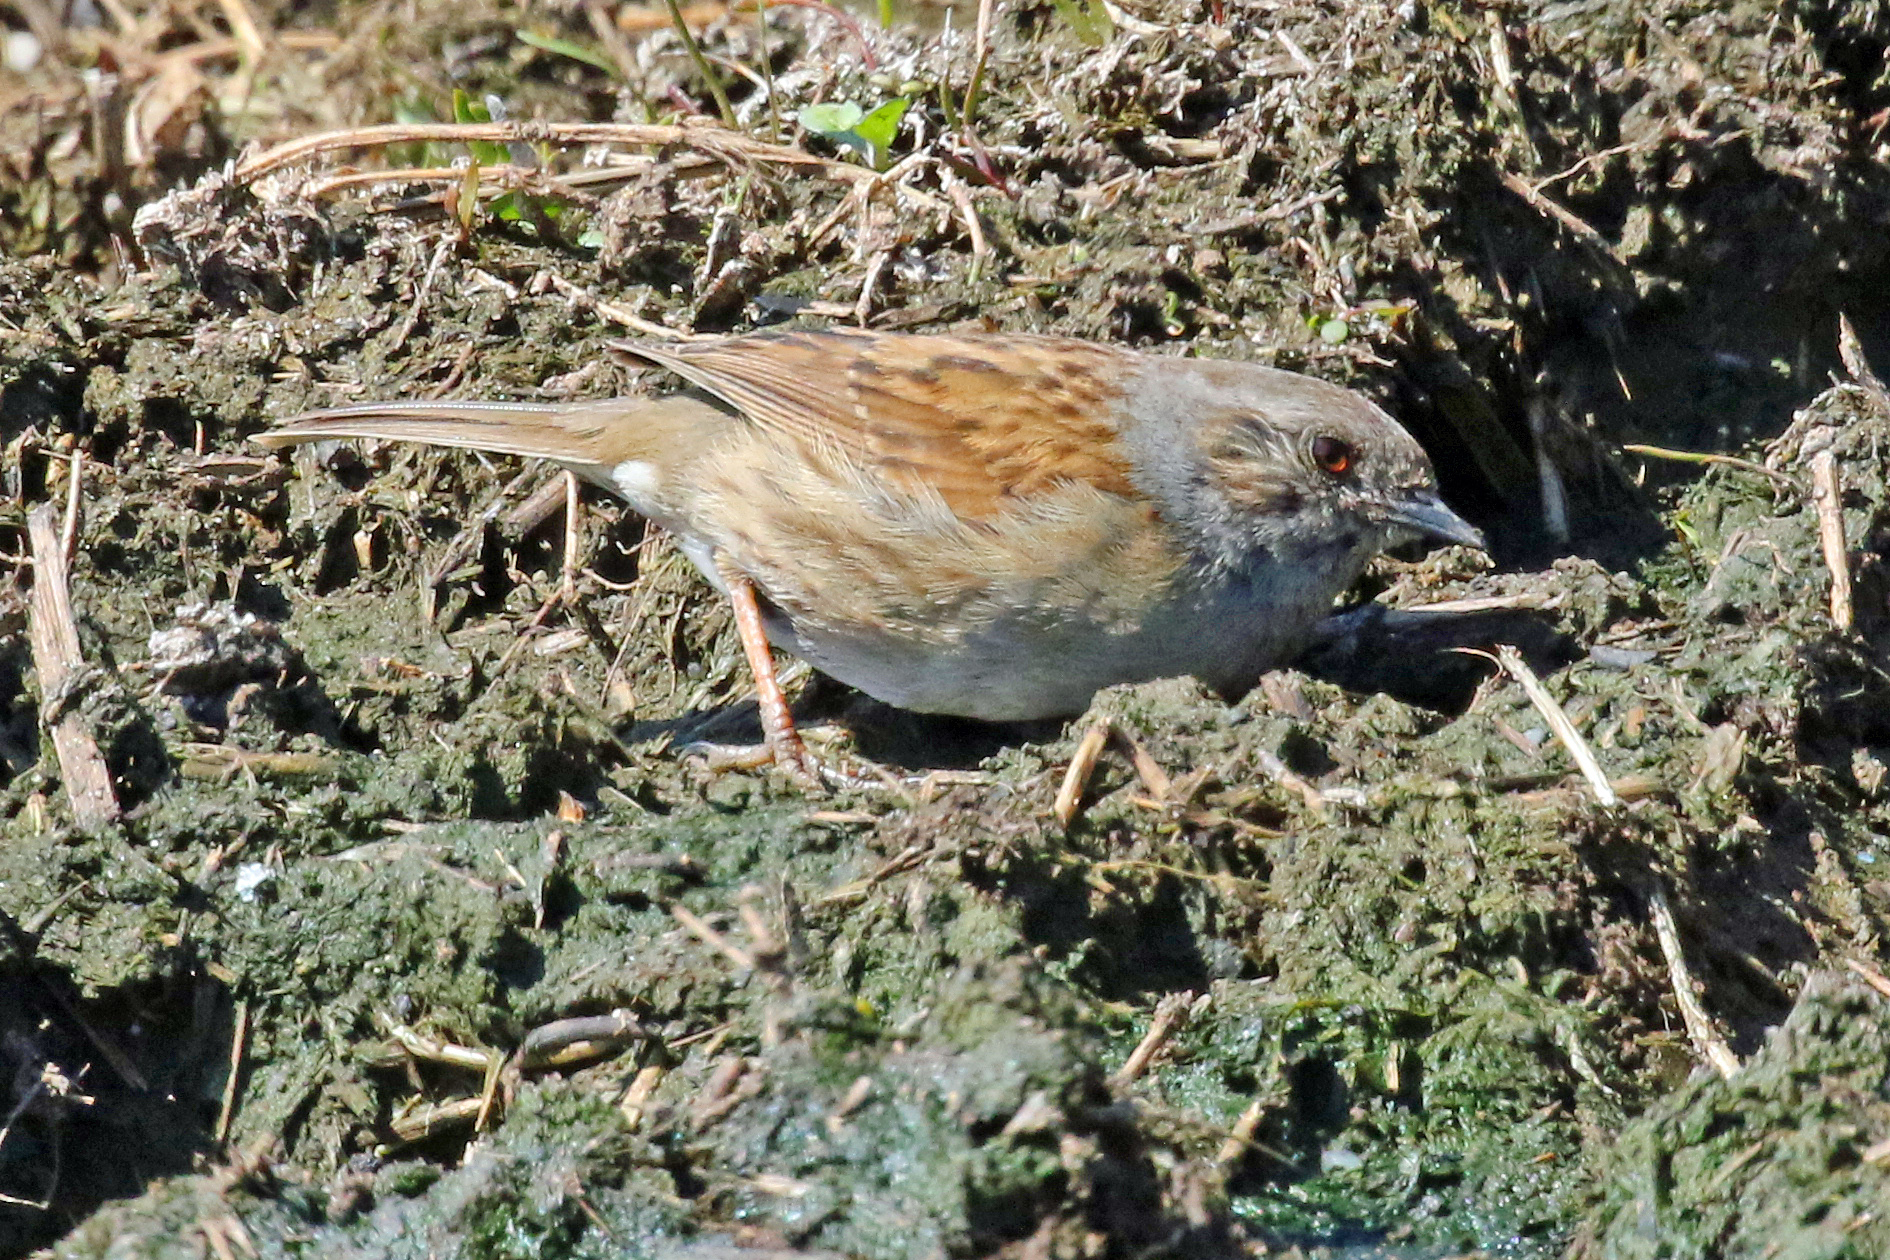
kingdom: Animalia
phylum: Chordata
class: Aves
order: Passeriformes
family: Prunellidae
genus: Prunella
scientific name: Prunella modularis
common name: Dunnock
